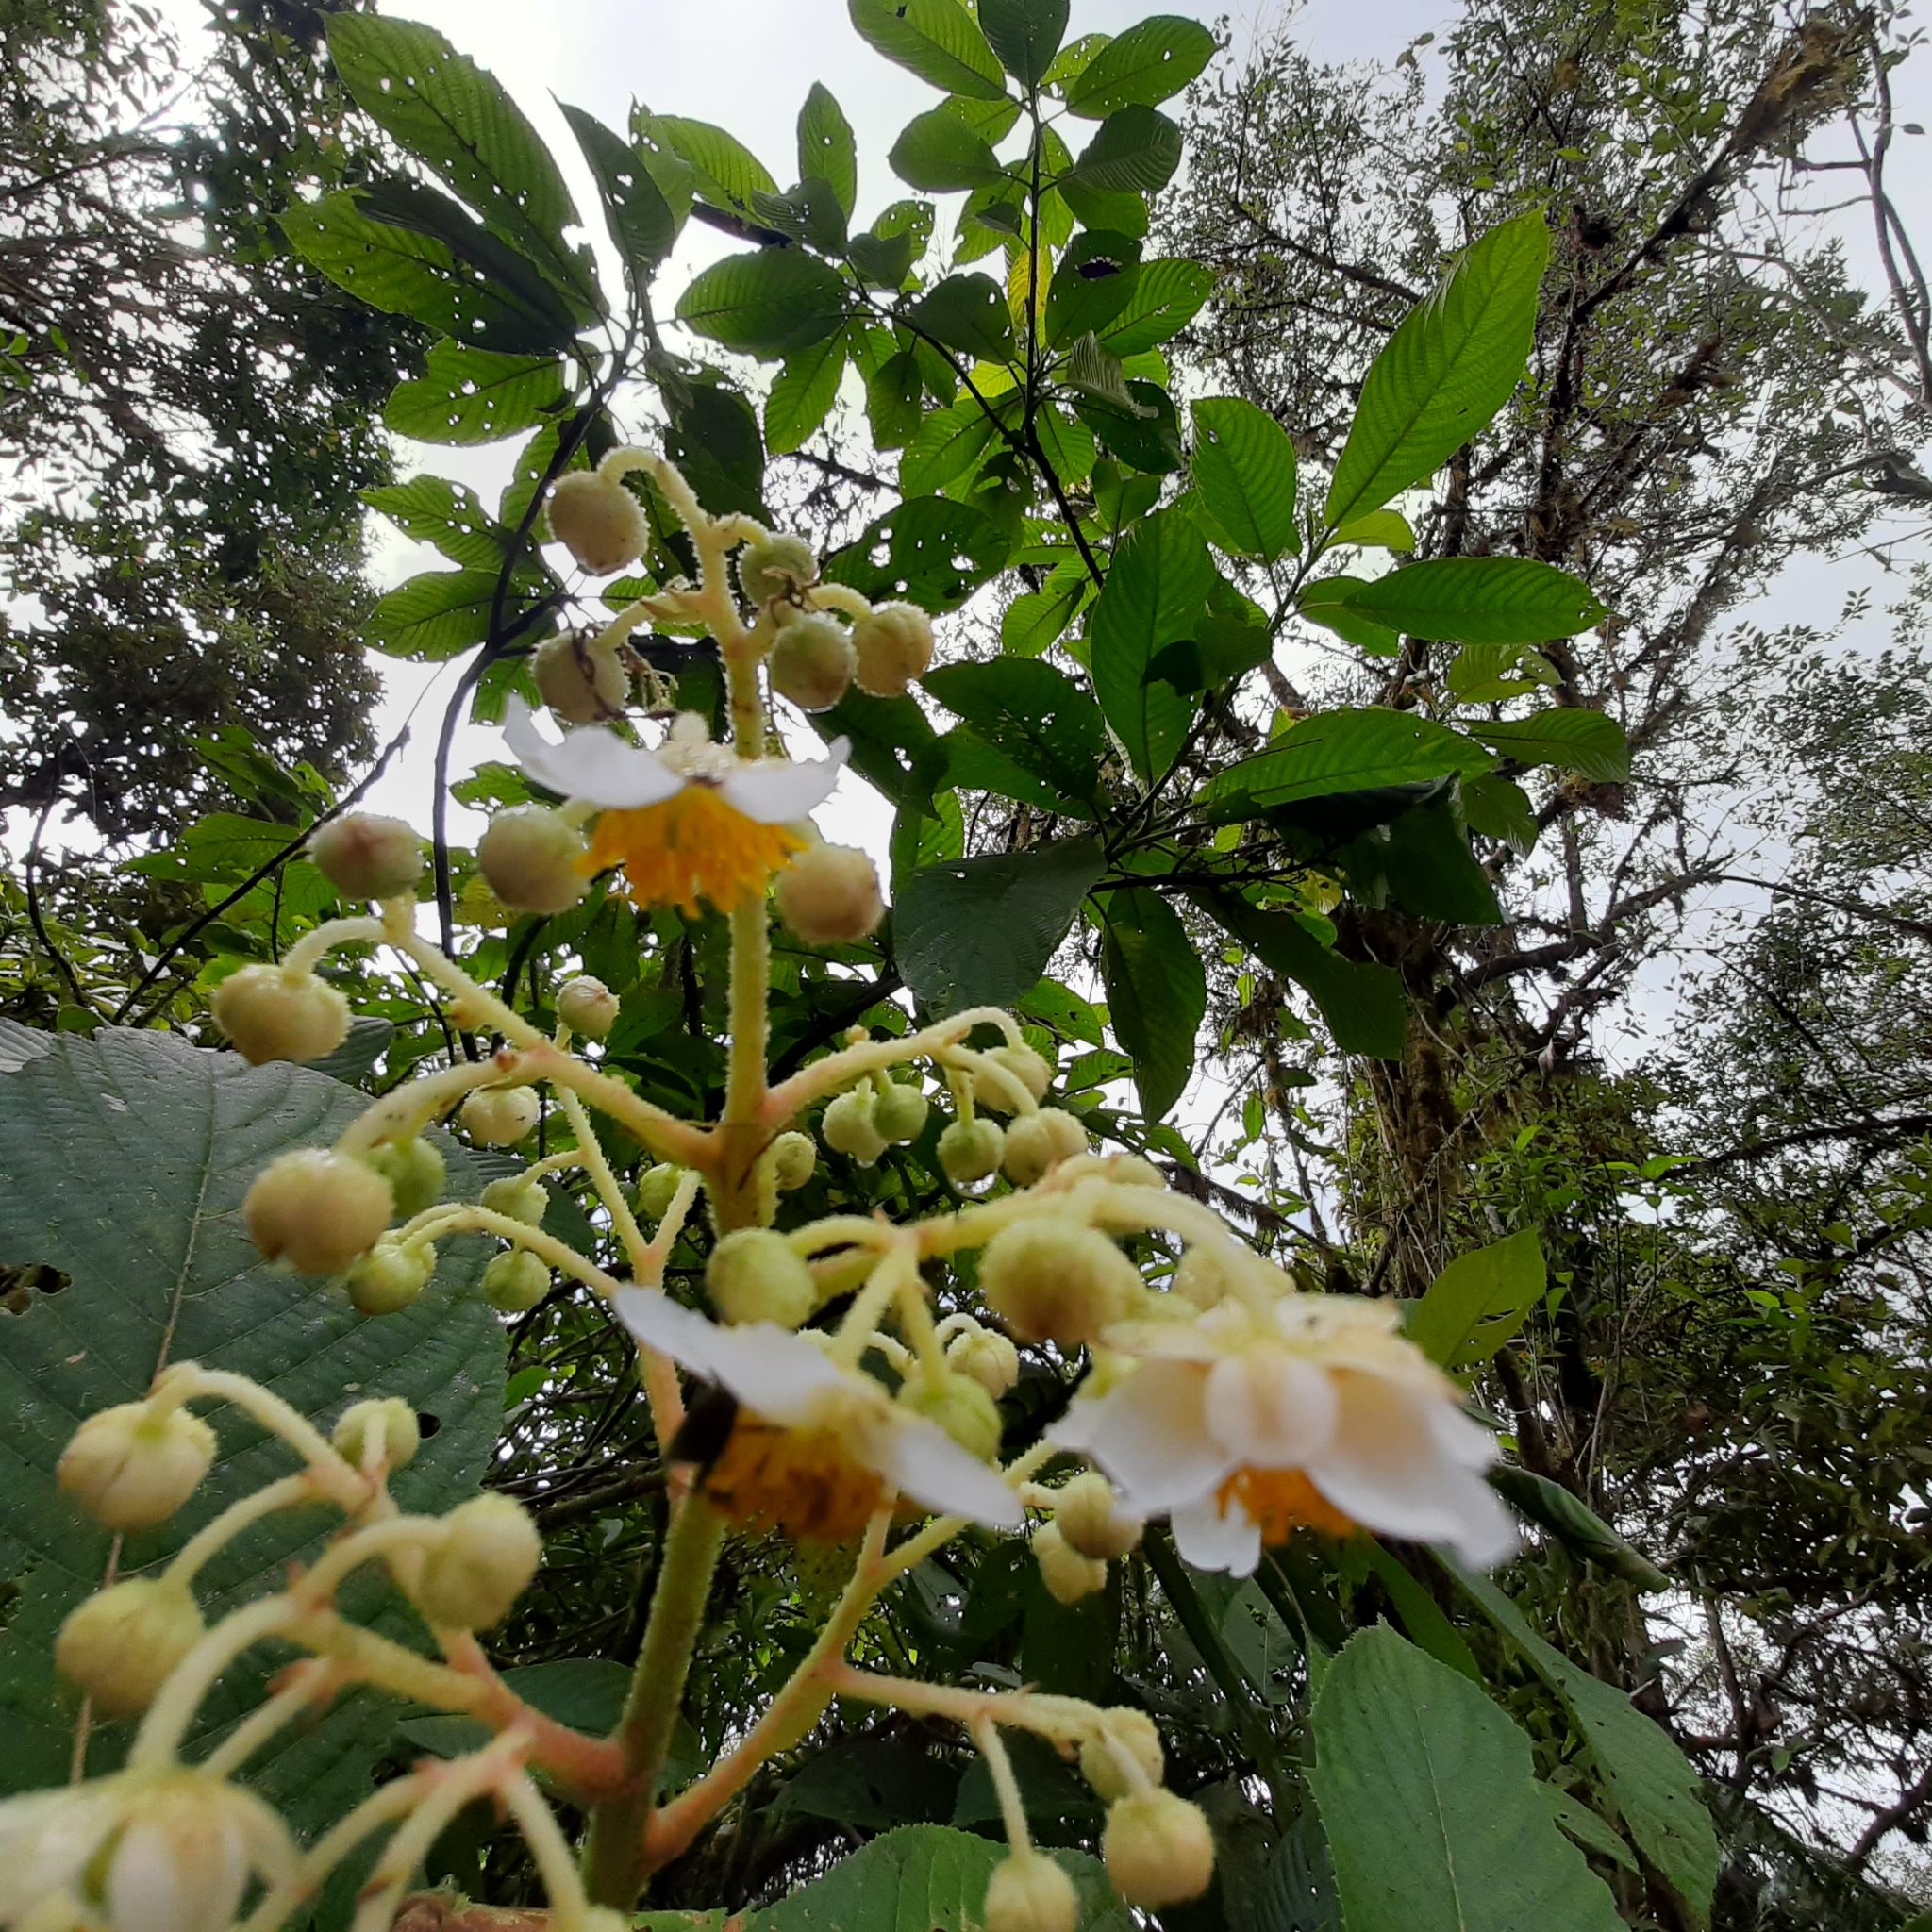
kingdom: Plantae
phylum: Tracheophyta
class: Magnoliopsida
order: Ericales
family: Actinidiaceae
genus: Saurauia
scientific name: Saurauia montana
